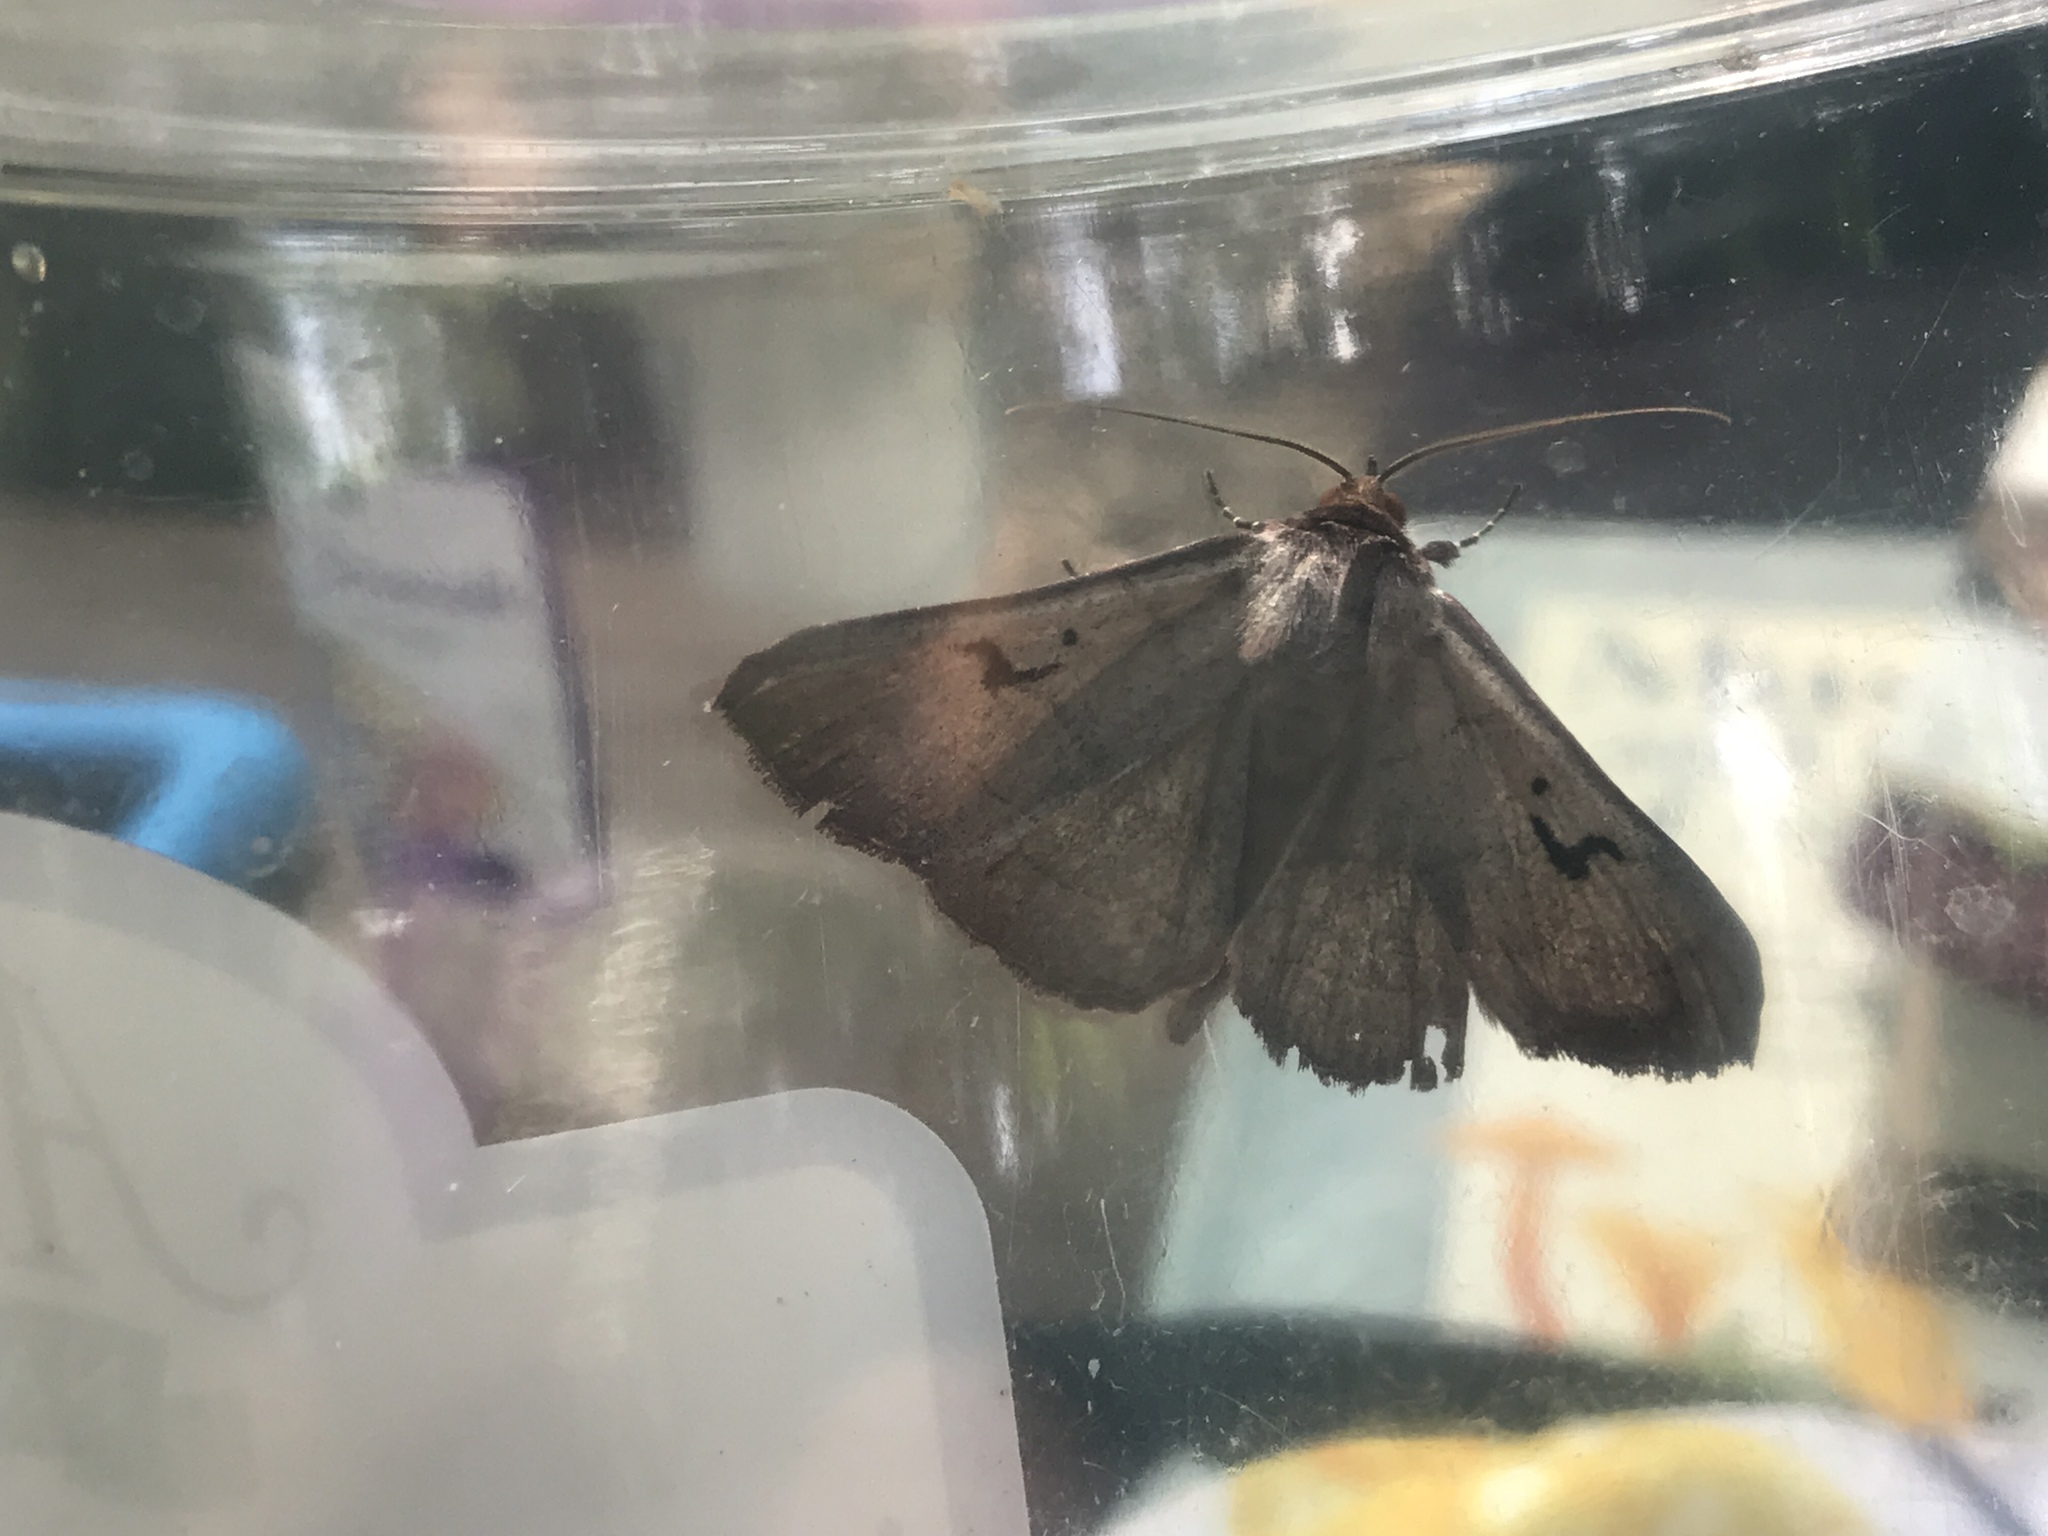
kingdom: Animalia
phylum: Arthropoda
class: Insecta
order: Lepidoptera
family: Erebidae
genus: Panopoda
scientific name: Panopoda carneicosta
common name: Brown panopoda moth
